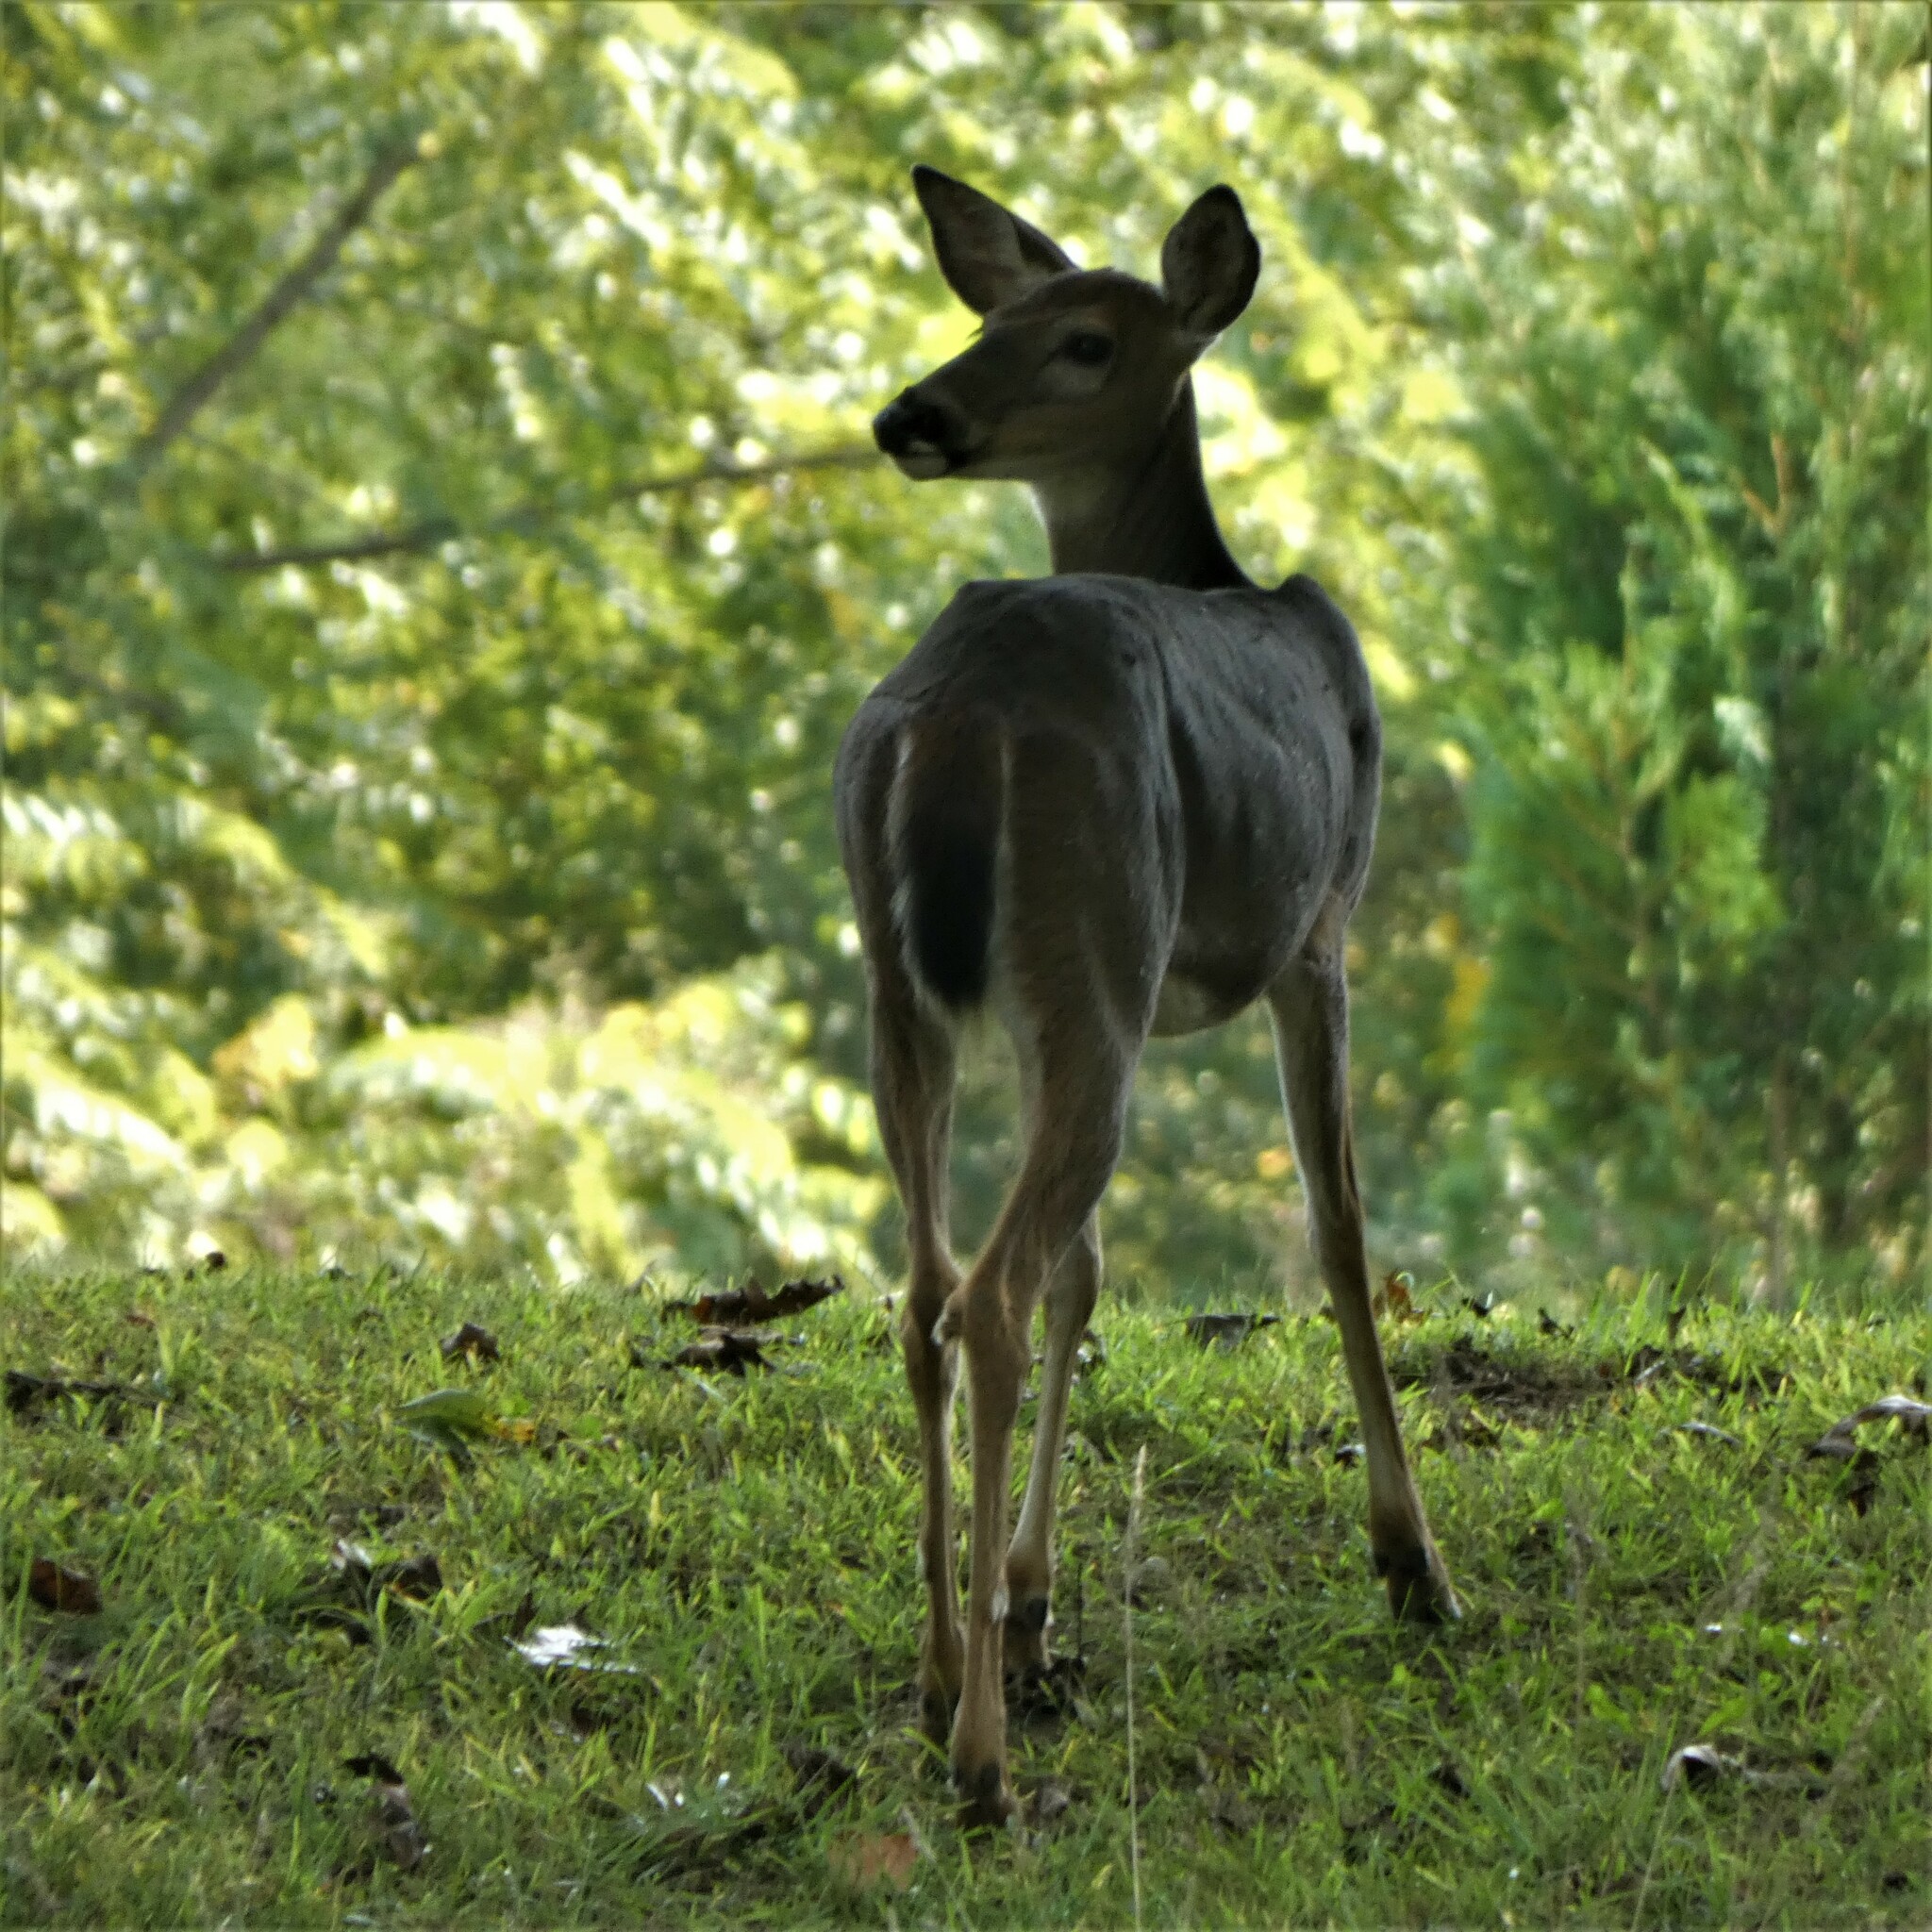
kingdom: Animalia
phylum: Chordata
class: Mammalia
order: Artiodactyla
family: Cervidae
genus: Odocoileus
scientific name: Odocoileus virginianus
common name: White-tailed deer
